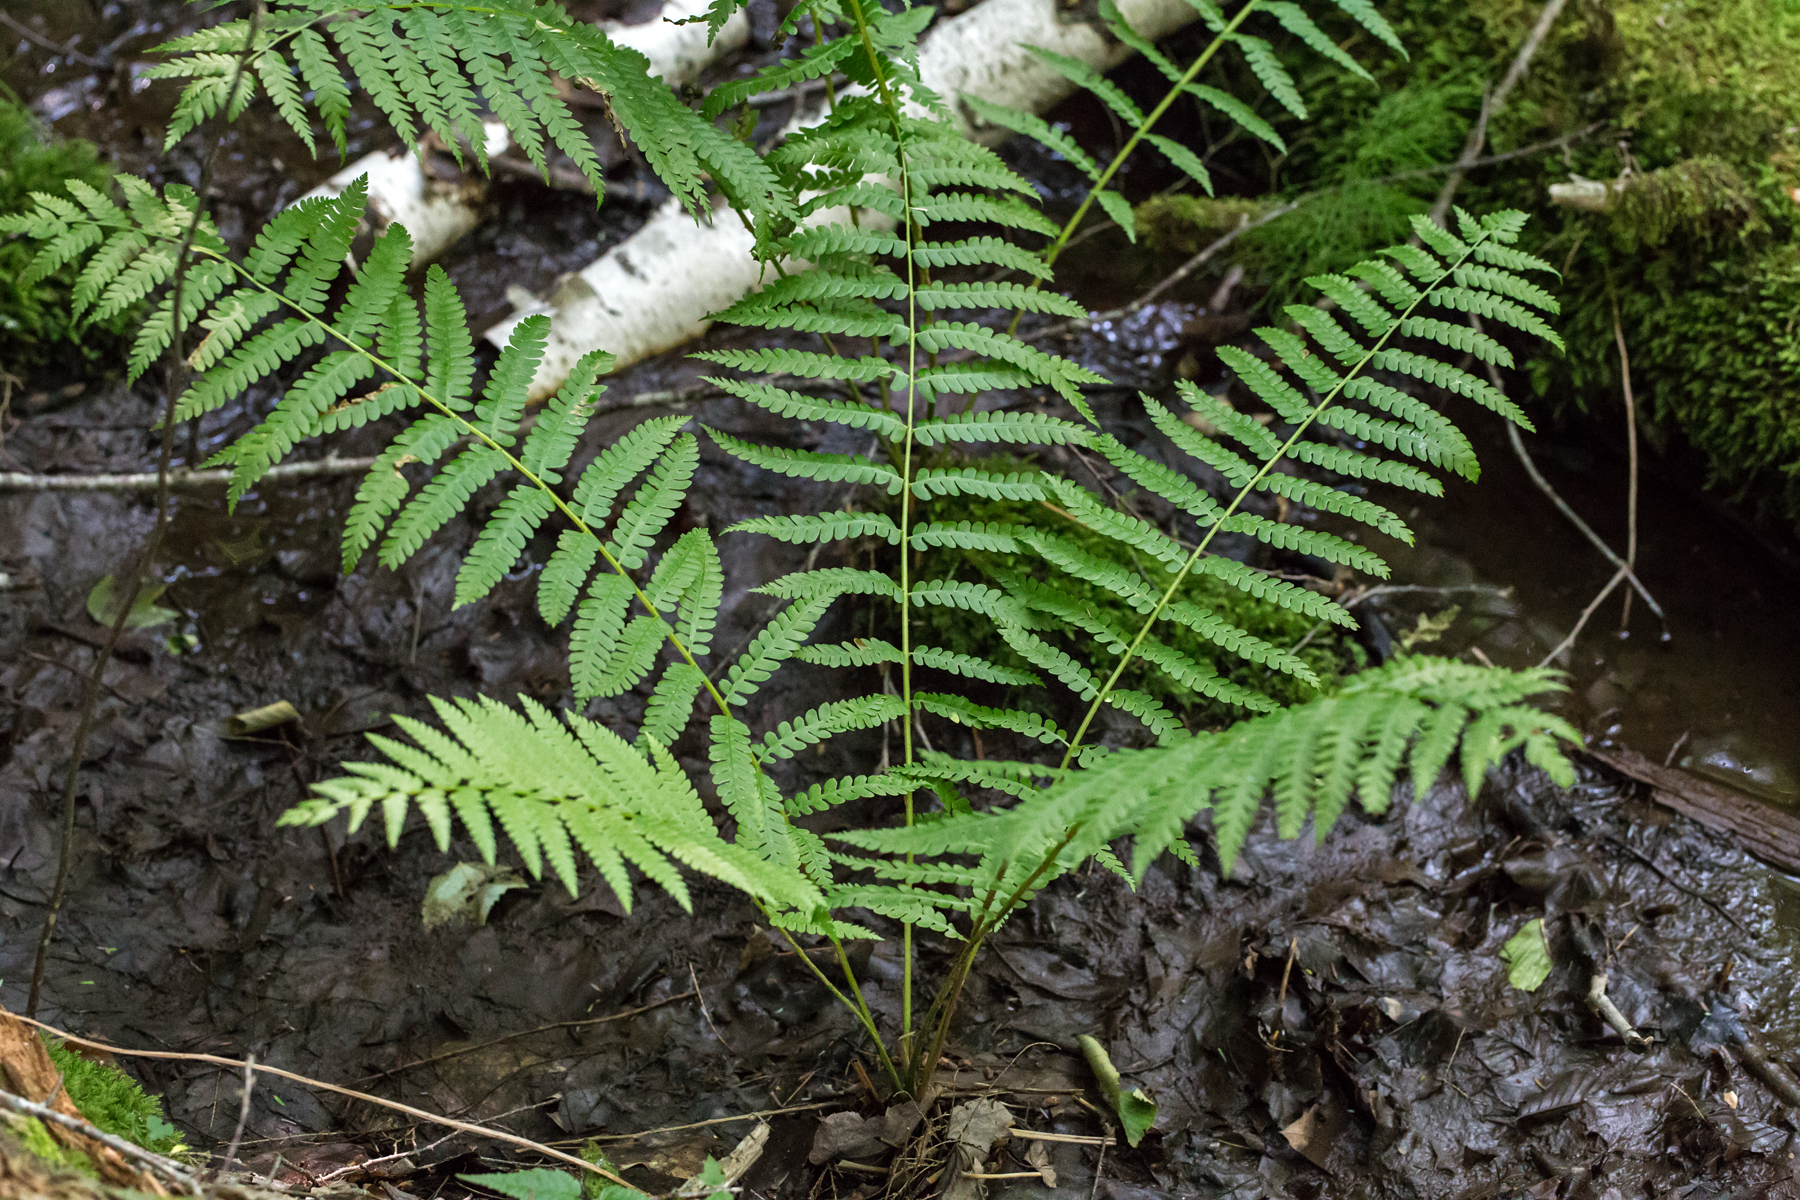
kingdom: Plantae
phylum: Tracheophyta
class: Polypodiopsida
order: Osmundales
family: Osmundaceae
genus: Osmundastrum
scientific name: Osmundastrum cinnamomeum
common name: Cinnamon fern
